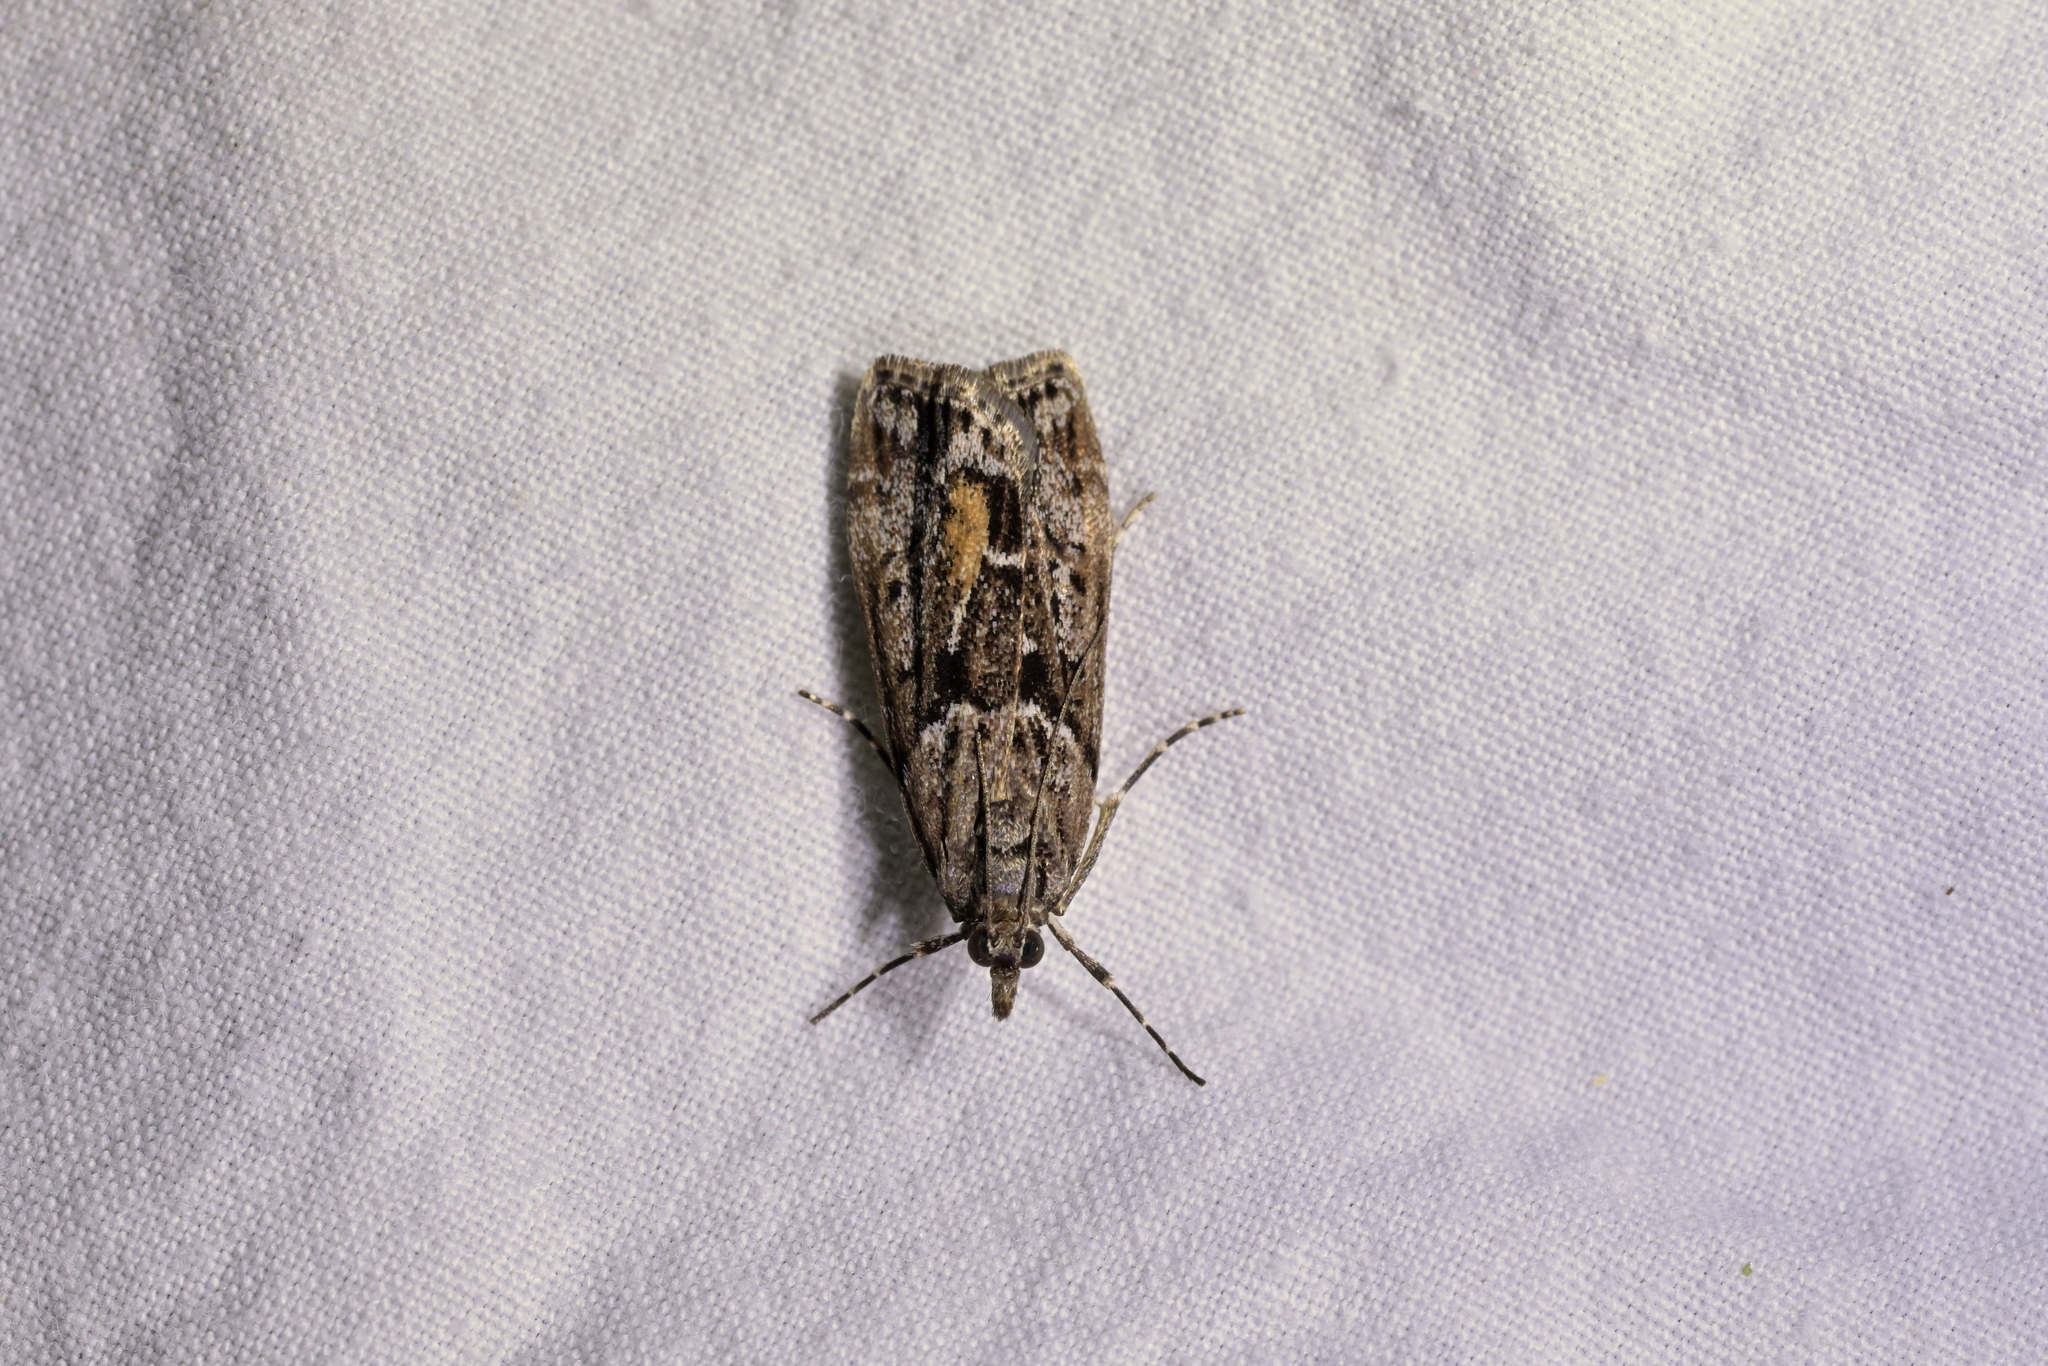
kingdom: Animalia
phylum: Arthropoda
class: Insecta
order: Lepidoptera
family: Crambidae
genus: Eudonia
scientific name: Eudonia submarginalis
